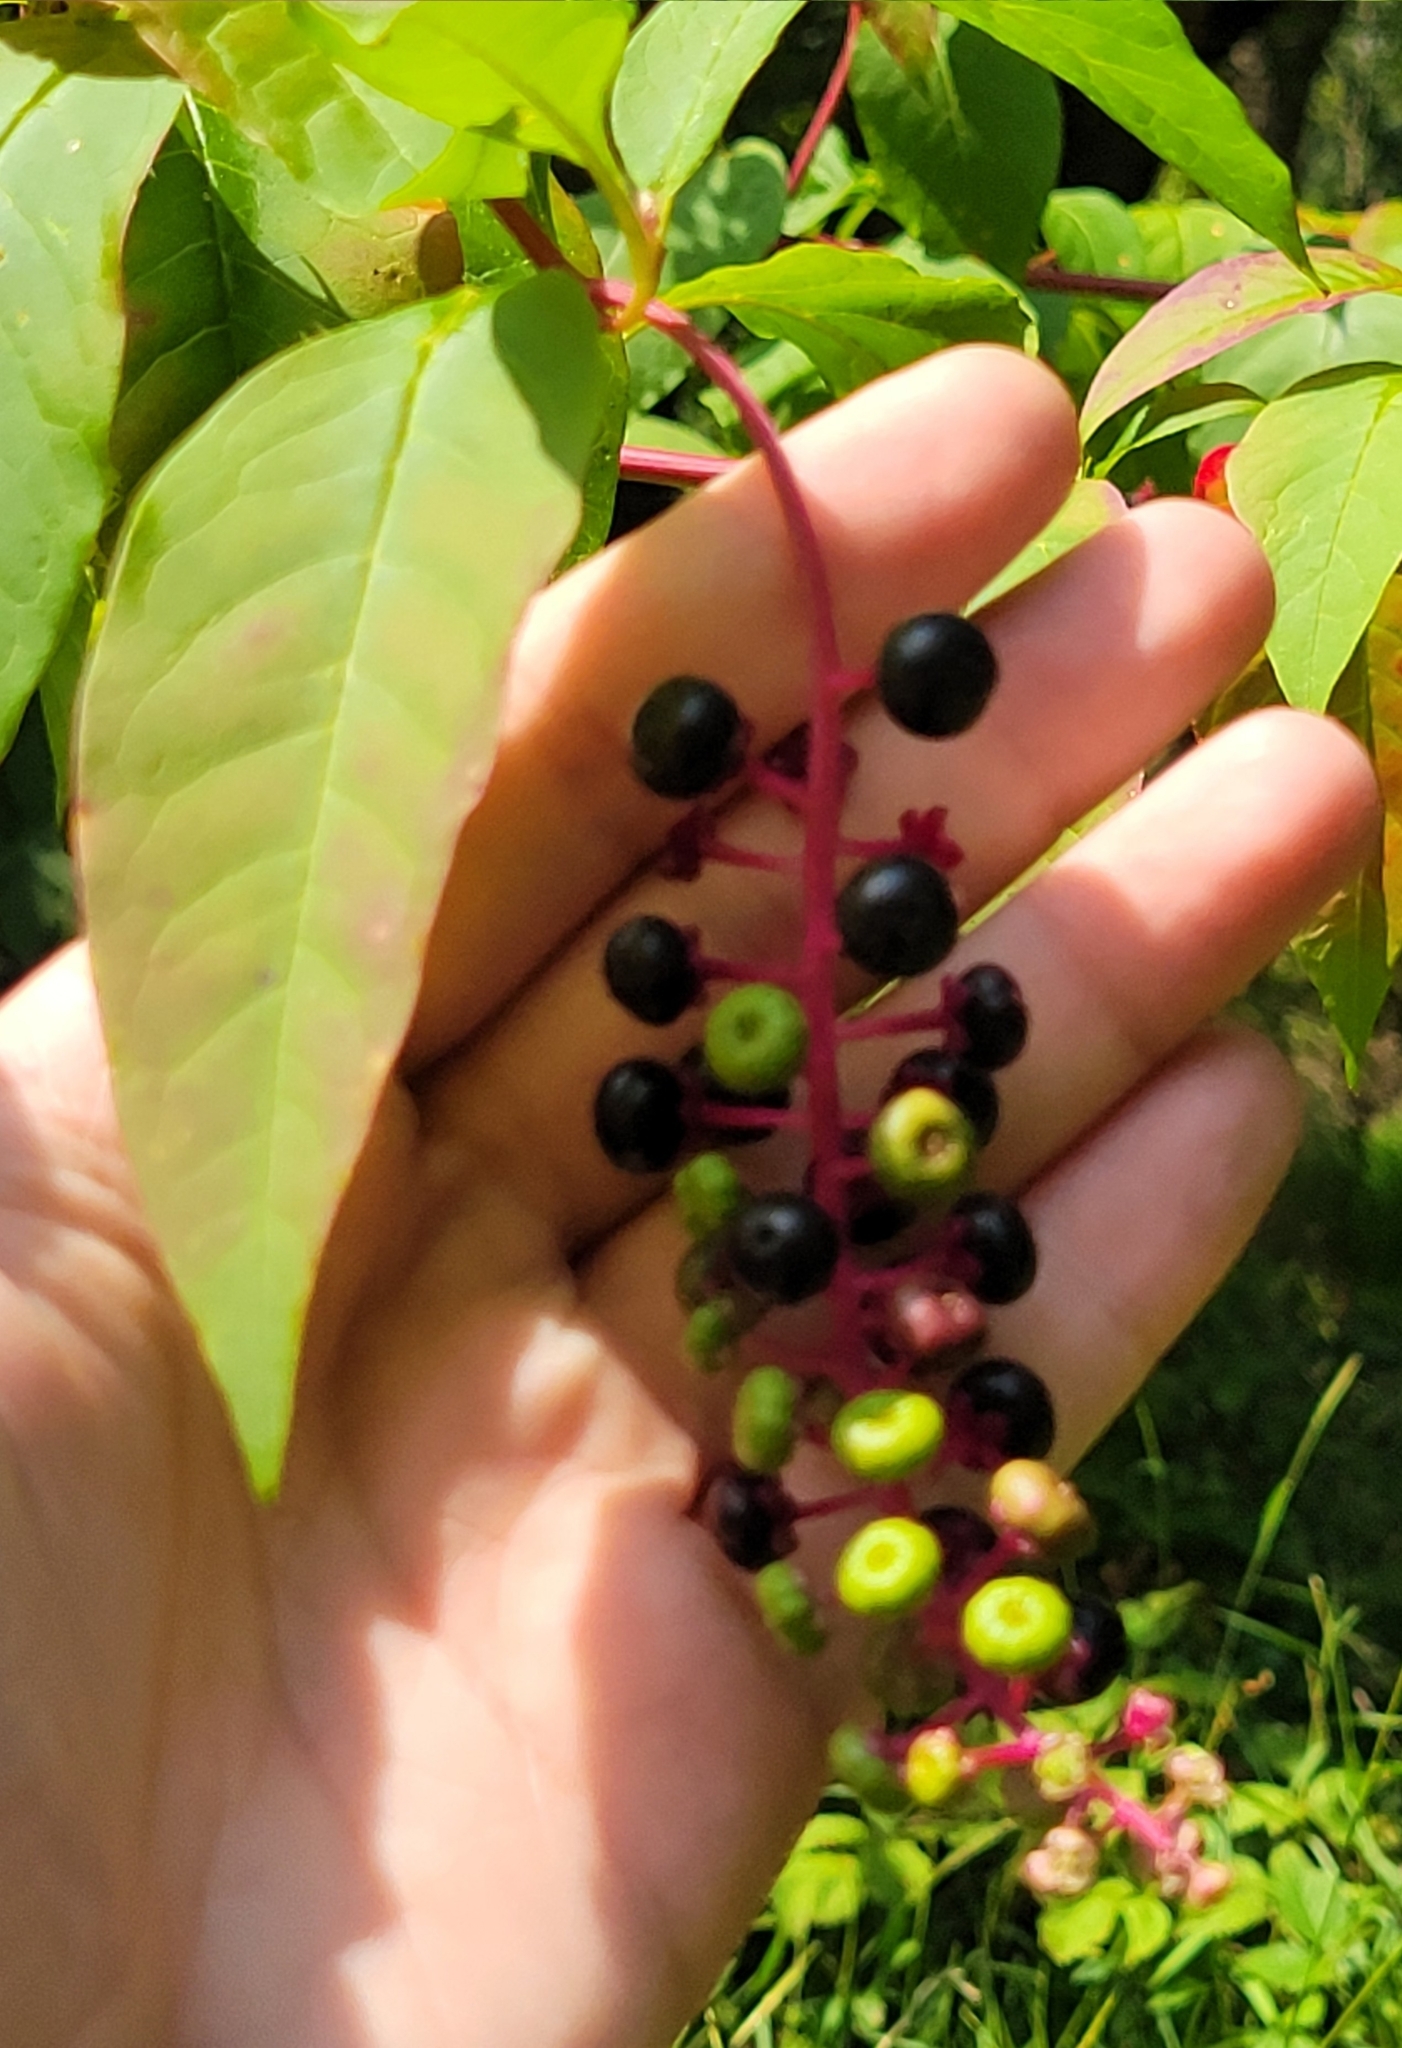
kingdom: Plantae
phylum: Tracheophyta
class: Magnoliopsida
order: Caryophyllales
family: Phytolaccaceae
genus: Phytolacca
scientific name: Phytolacca americana
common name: American pokeweed
